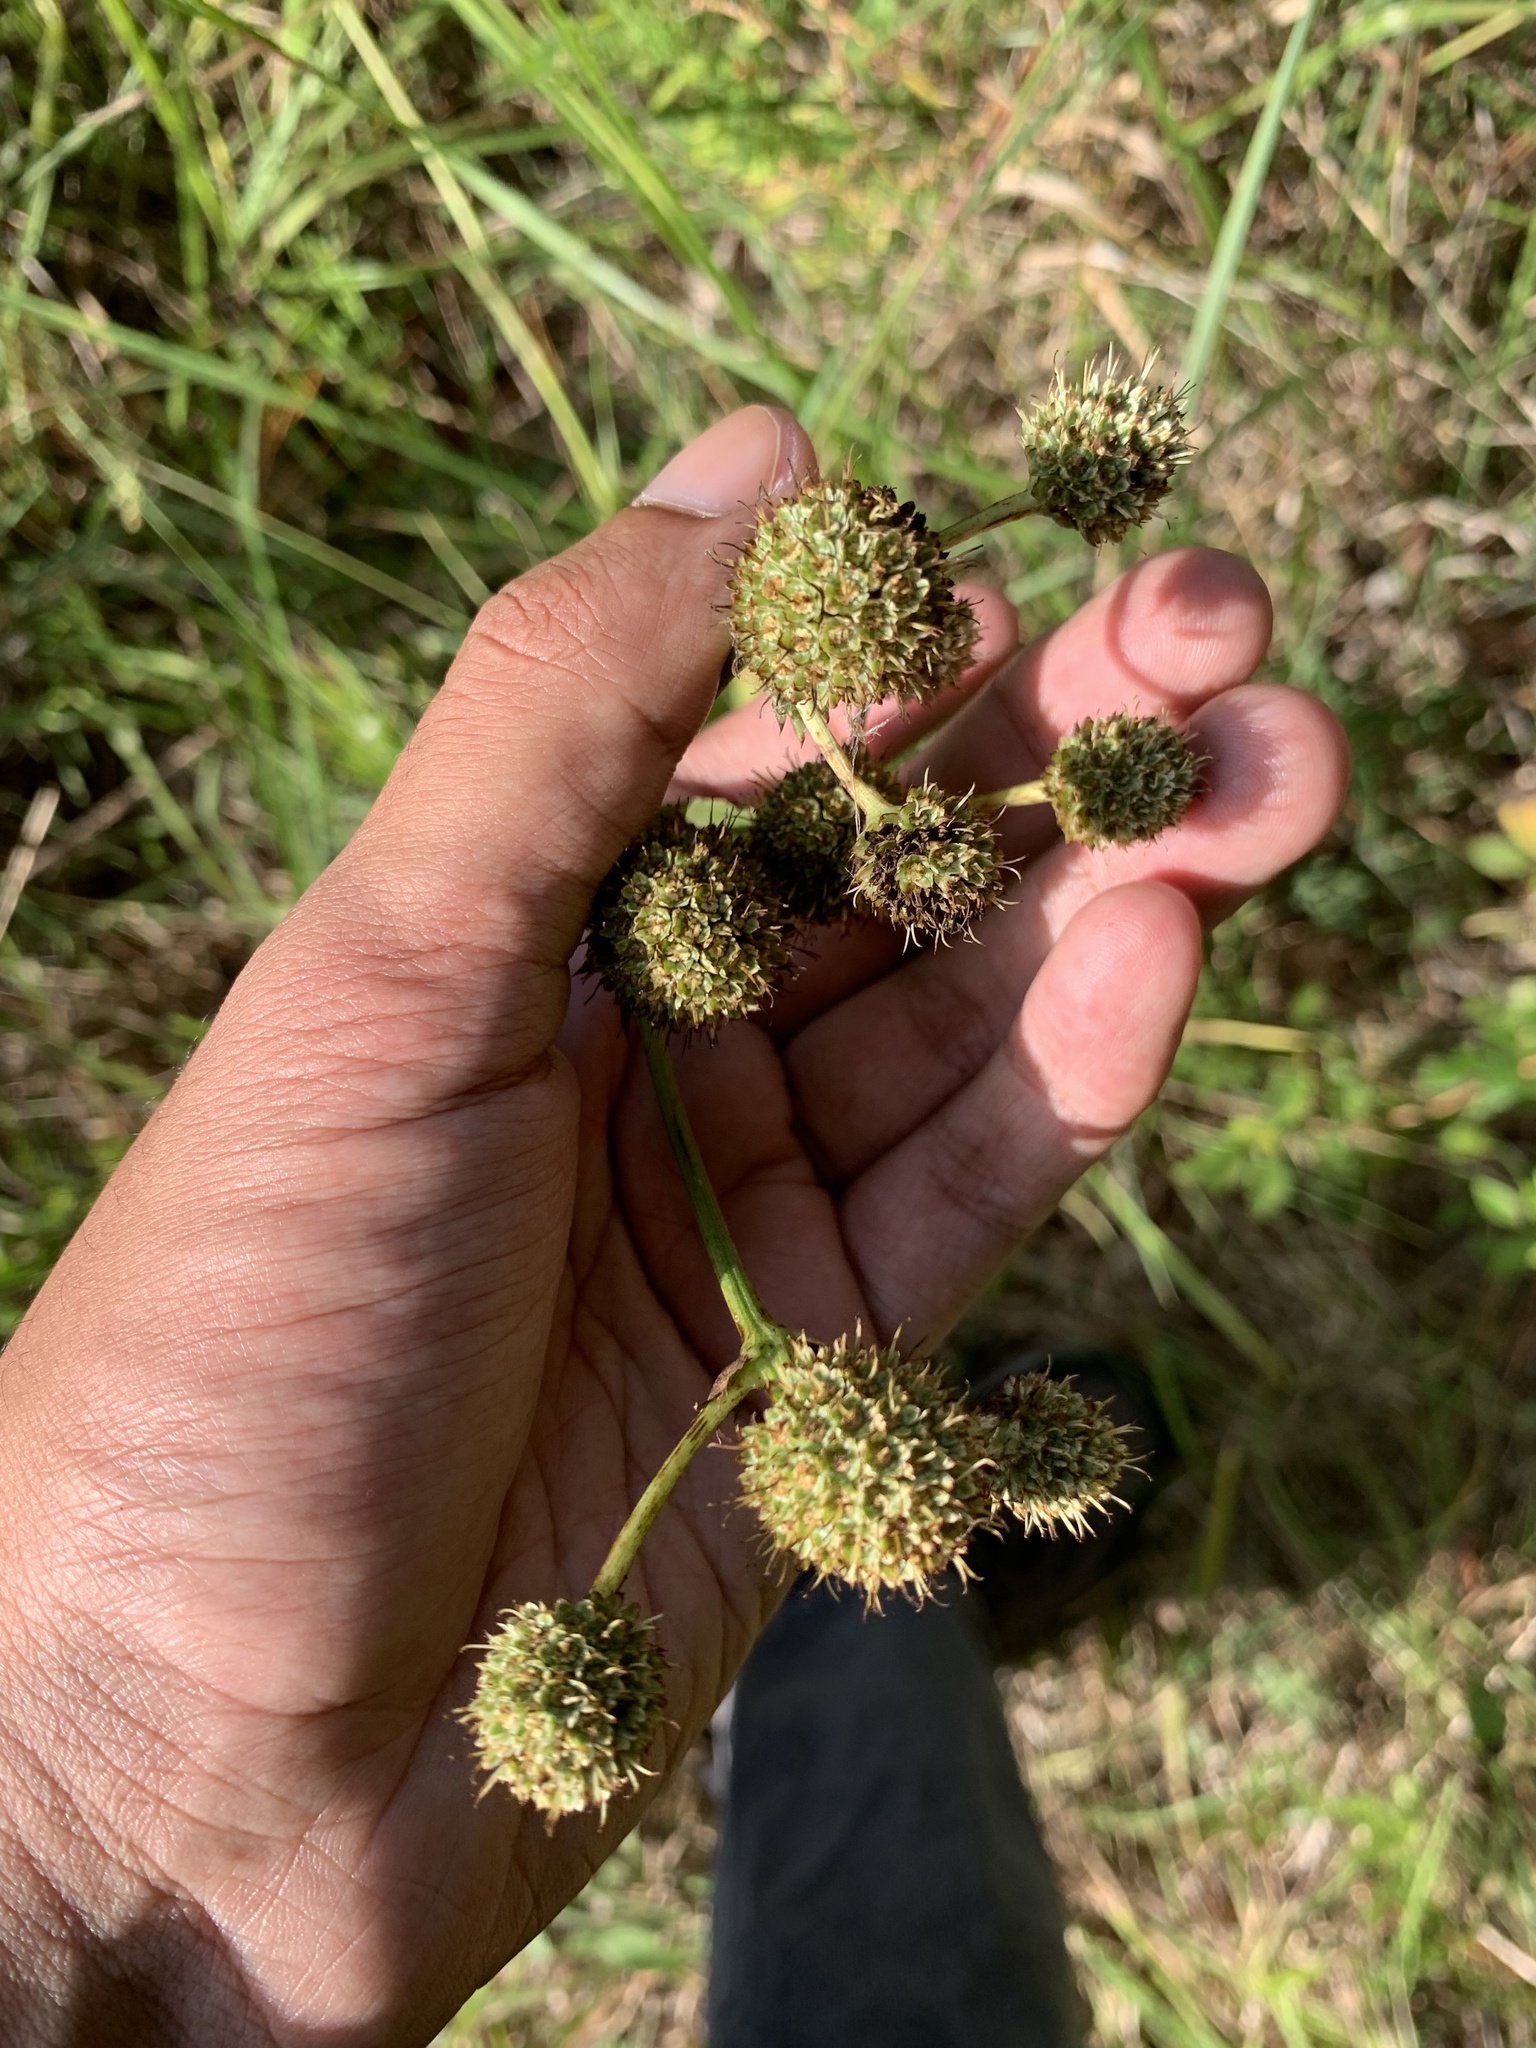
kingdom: Plantae
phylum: Tracheophyta
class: Magnoliopsida
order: Apiales
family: Apiaceae
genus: Eryngium
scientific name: Eryngium yuccifolium
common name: Button eryngo
